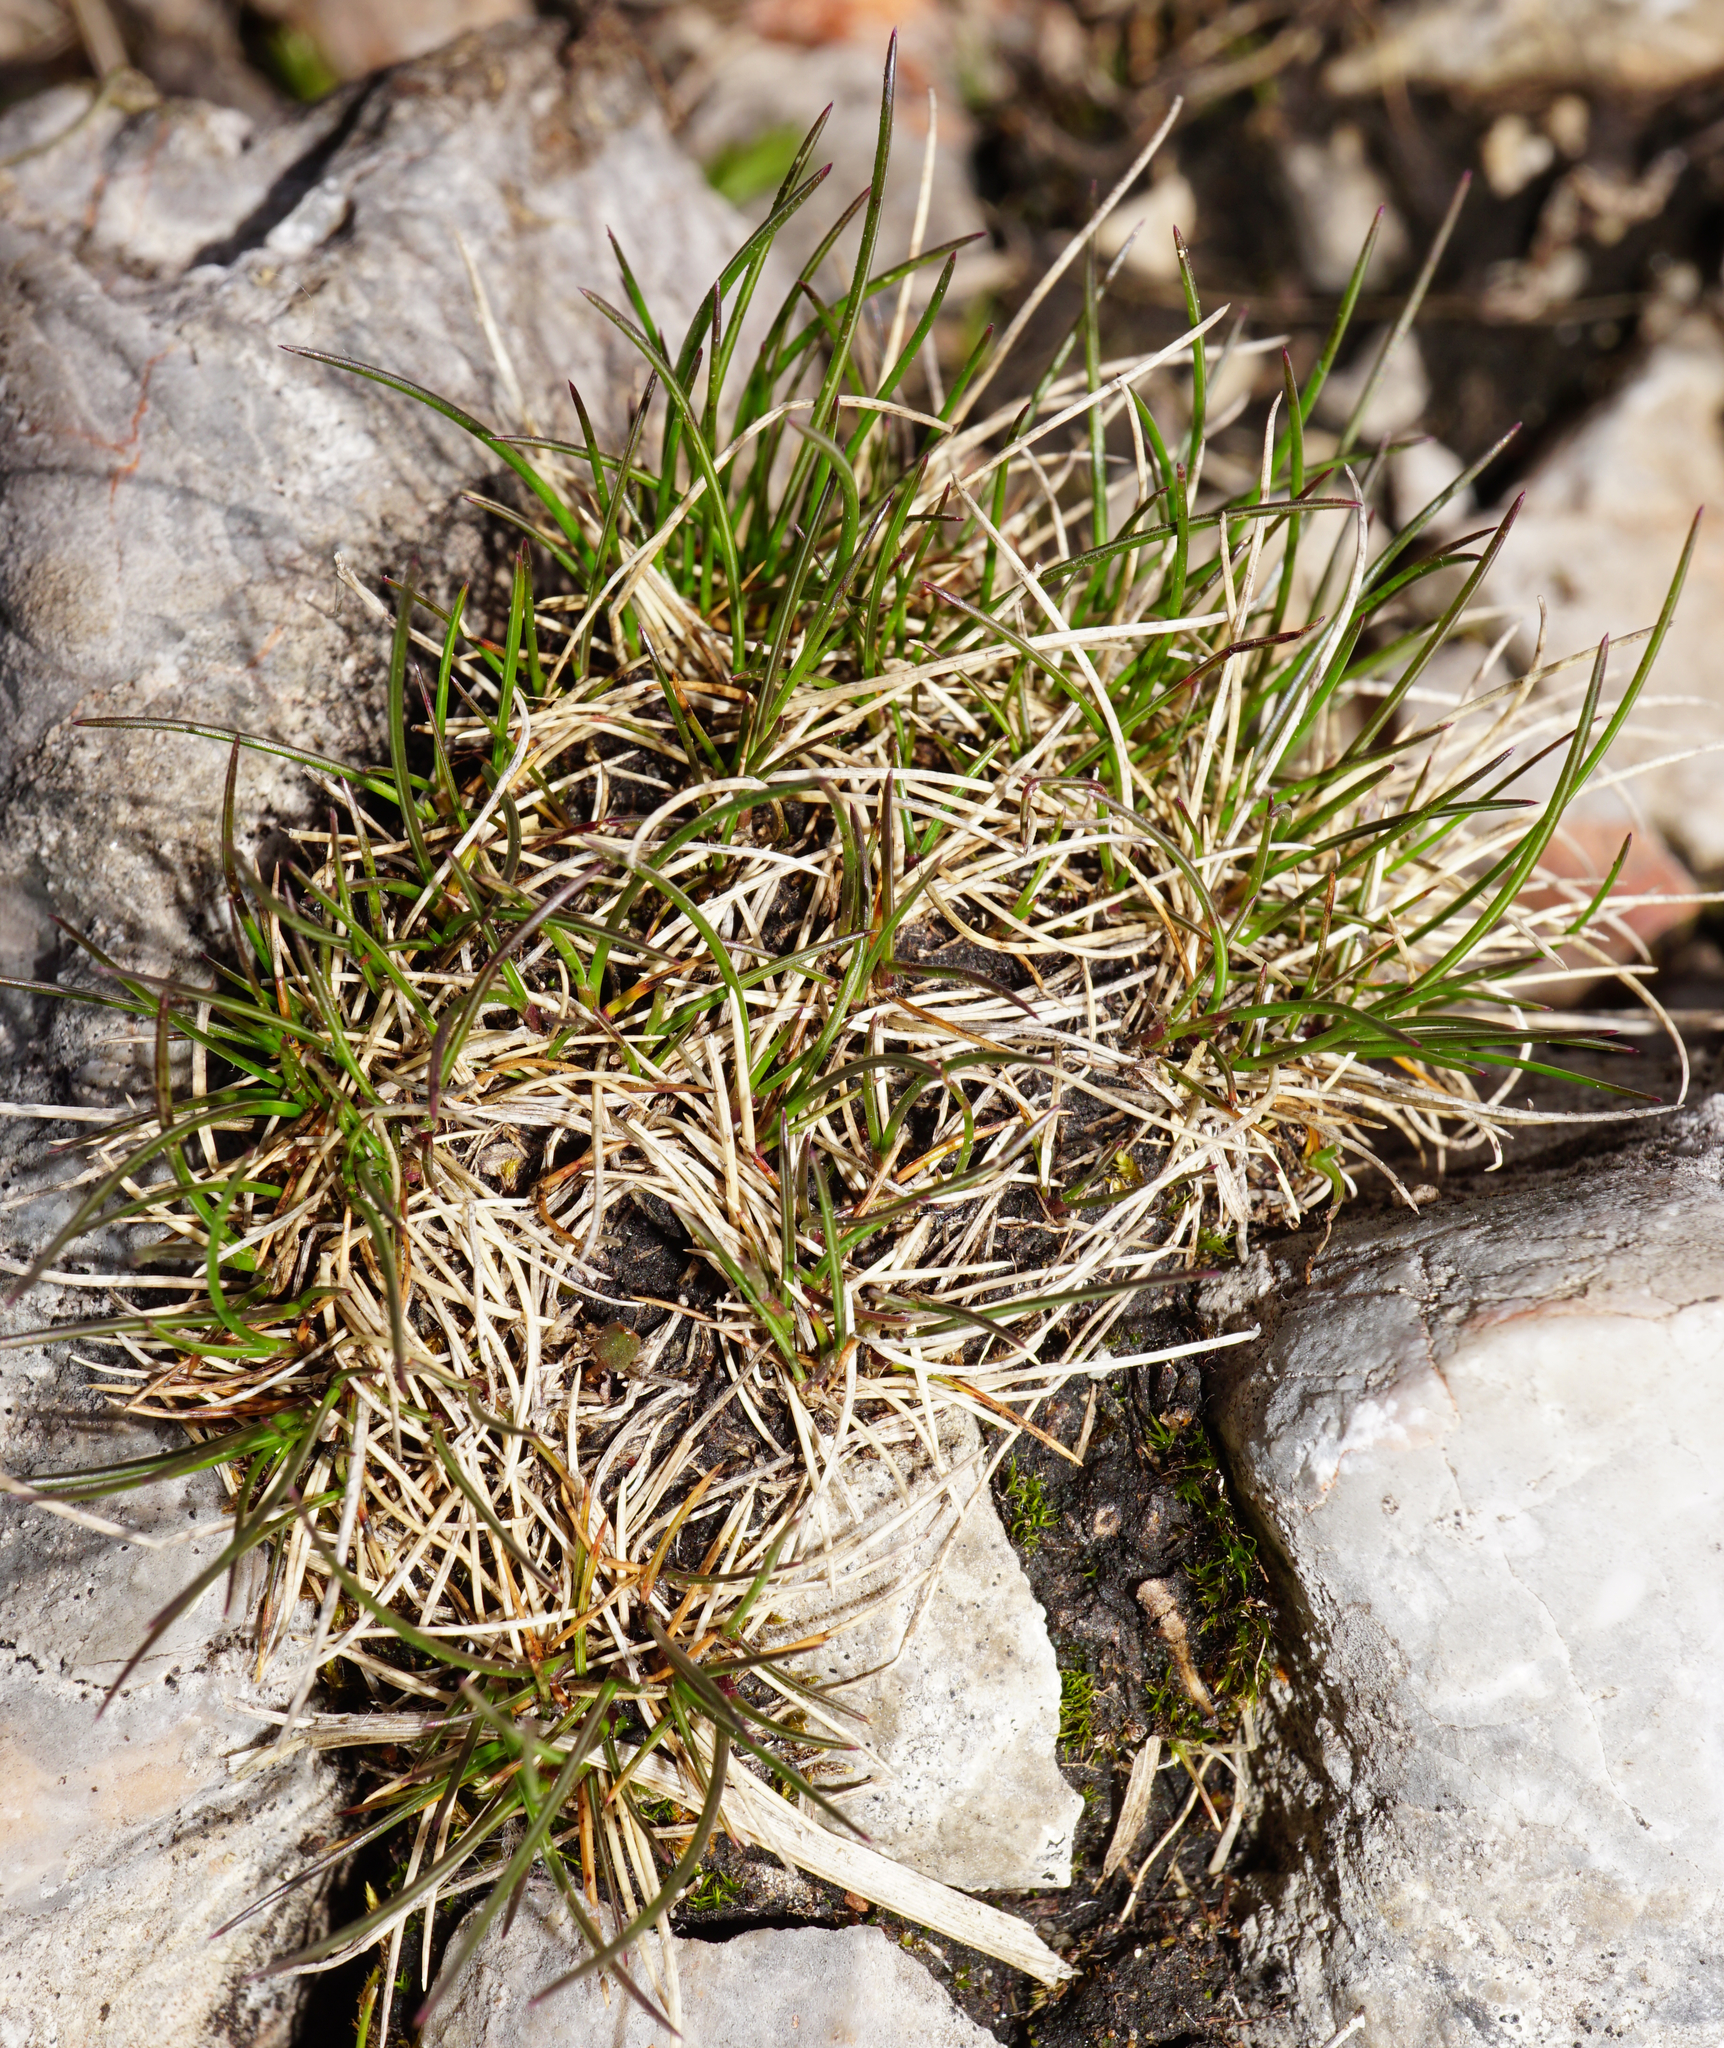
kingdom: Plantae
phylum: Tracheophyta
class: Liliopsida
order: Poales
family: Poaceae
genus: Festuca
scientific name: Festuca quadriflora
